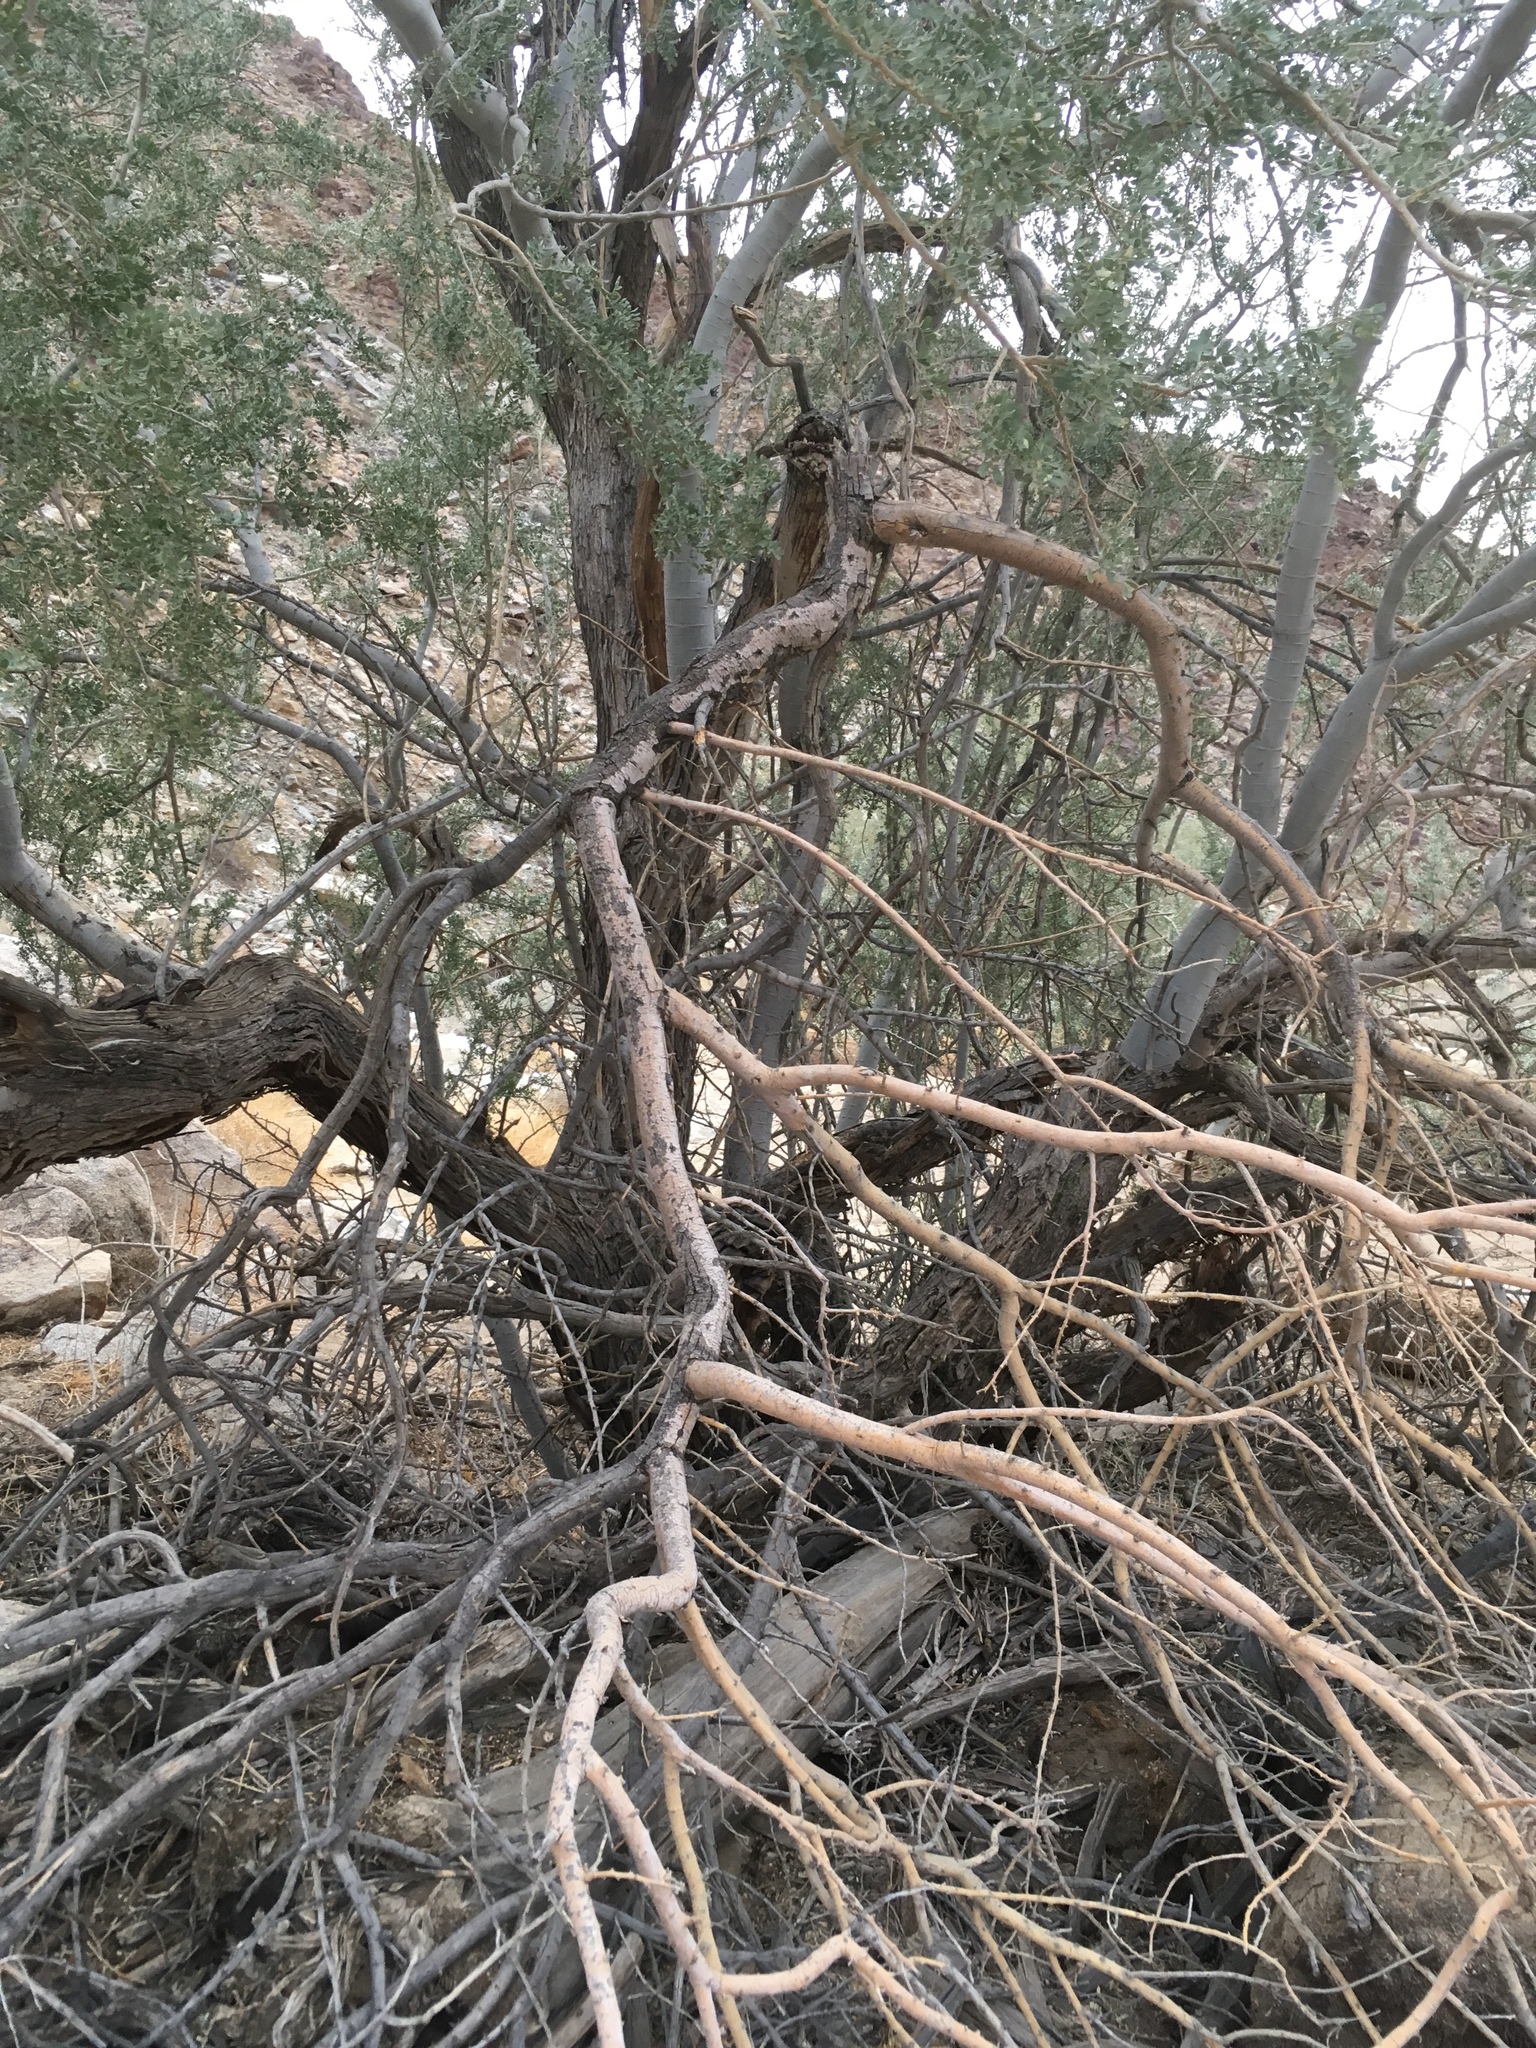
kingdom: Plantae
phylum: Tracheophyta
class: Magnoliopsida
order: Fabales
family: Fabaceae
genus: Olneya
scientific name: Olneya tesota
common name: Desert ironwood
